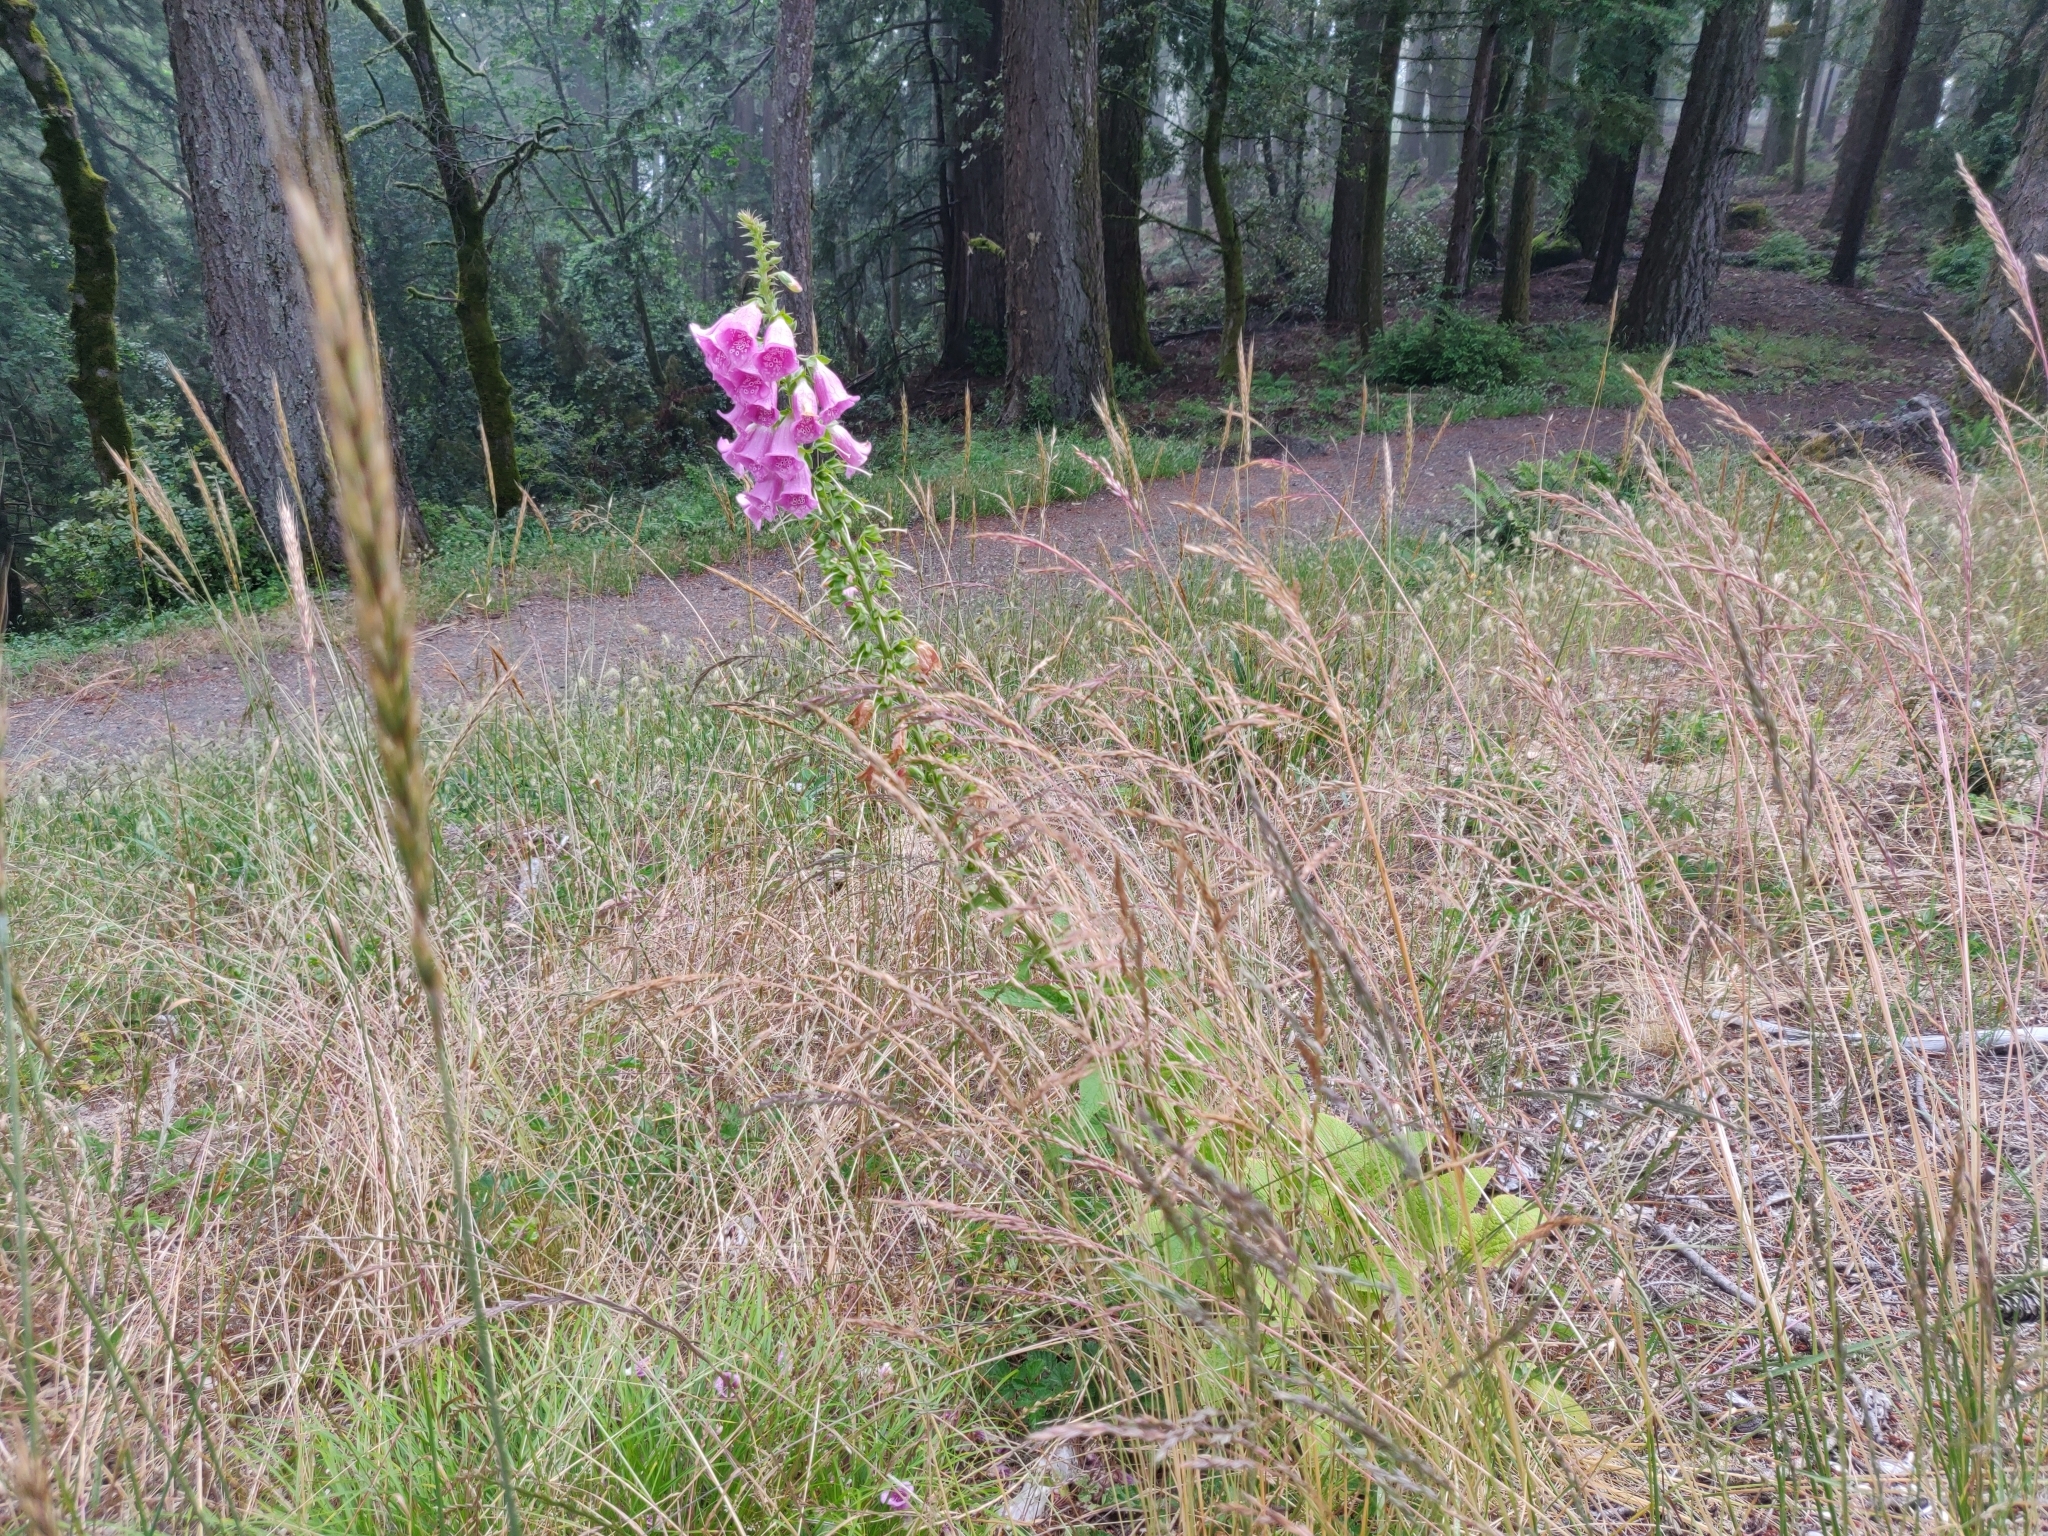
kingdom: Plantae
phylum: Tracheophyta
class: Magnoliopsida
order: Lamiales
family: Plantaginaceae
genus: Digitalis
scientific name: Digitalis purpurea
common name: Foxglove
